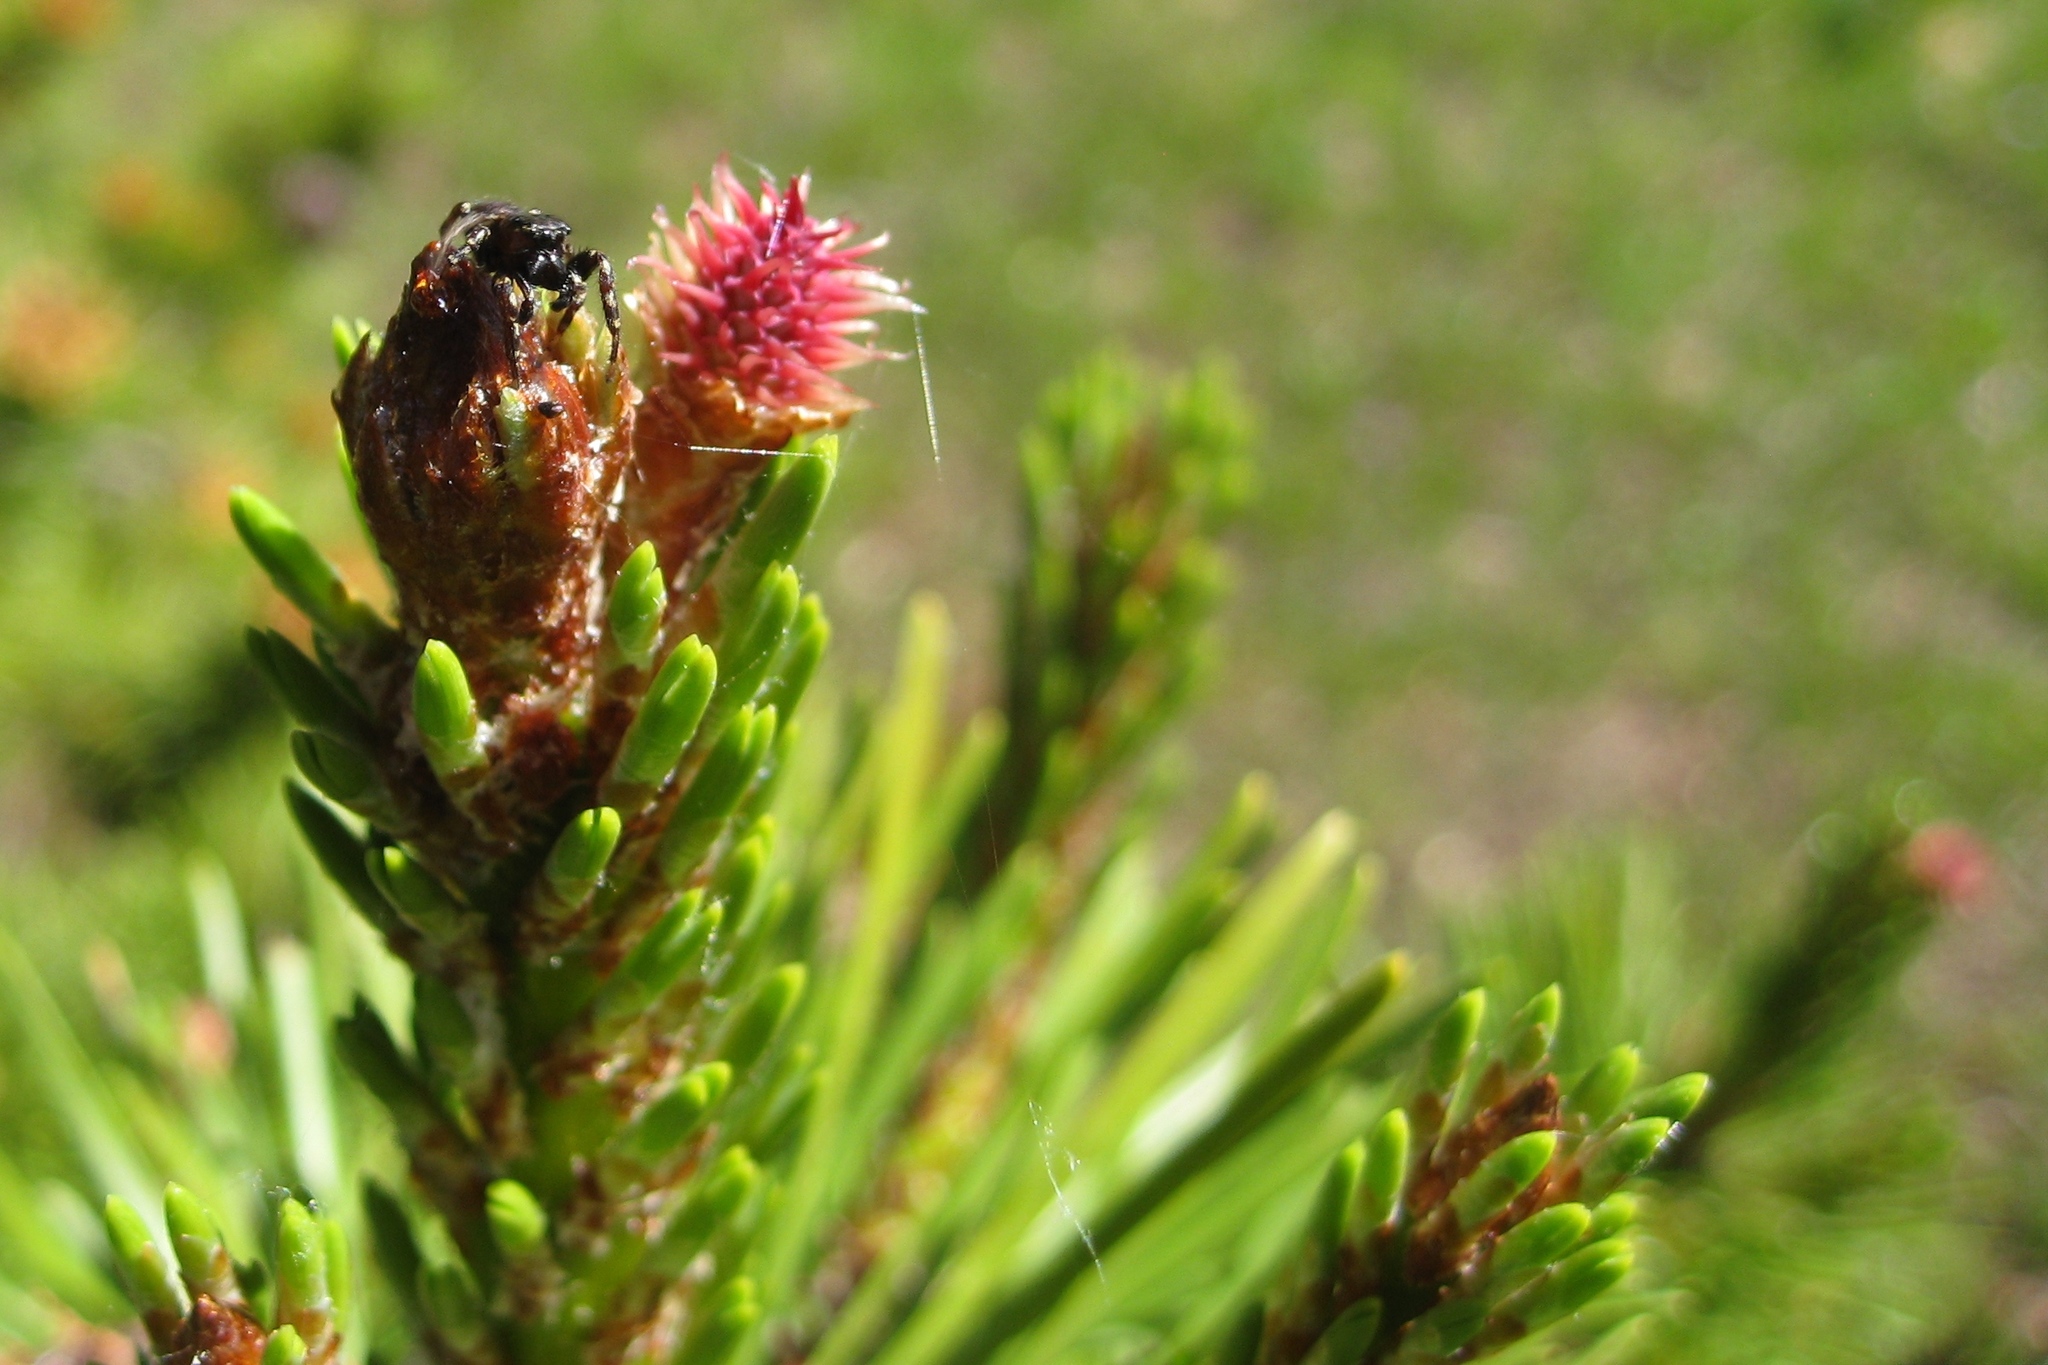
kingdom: Animalia
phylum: Arthropoda
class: Arachnida
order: Araneae
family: Salticidae
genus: Pelegrina
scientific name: Pelegrina aeneola
